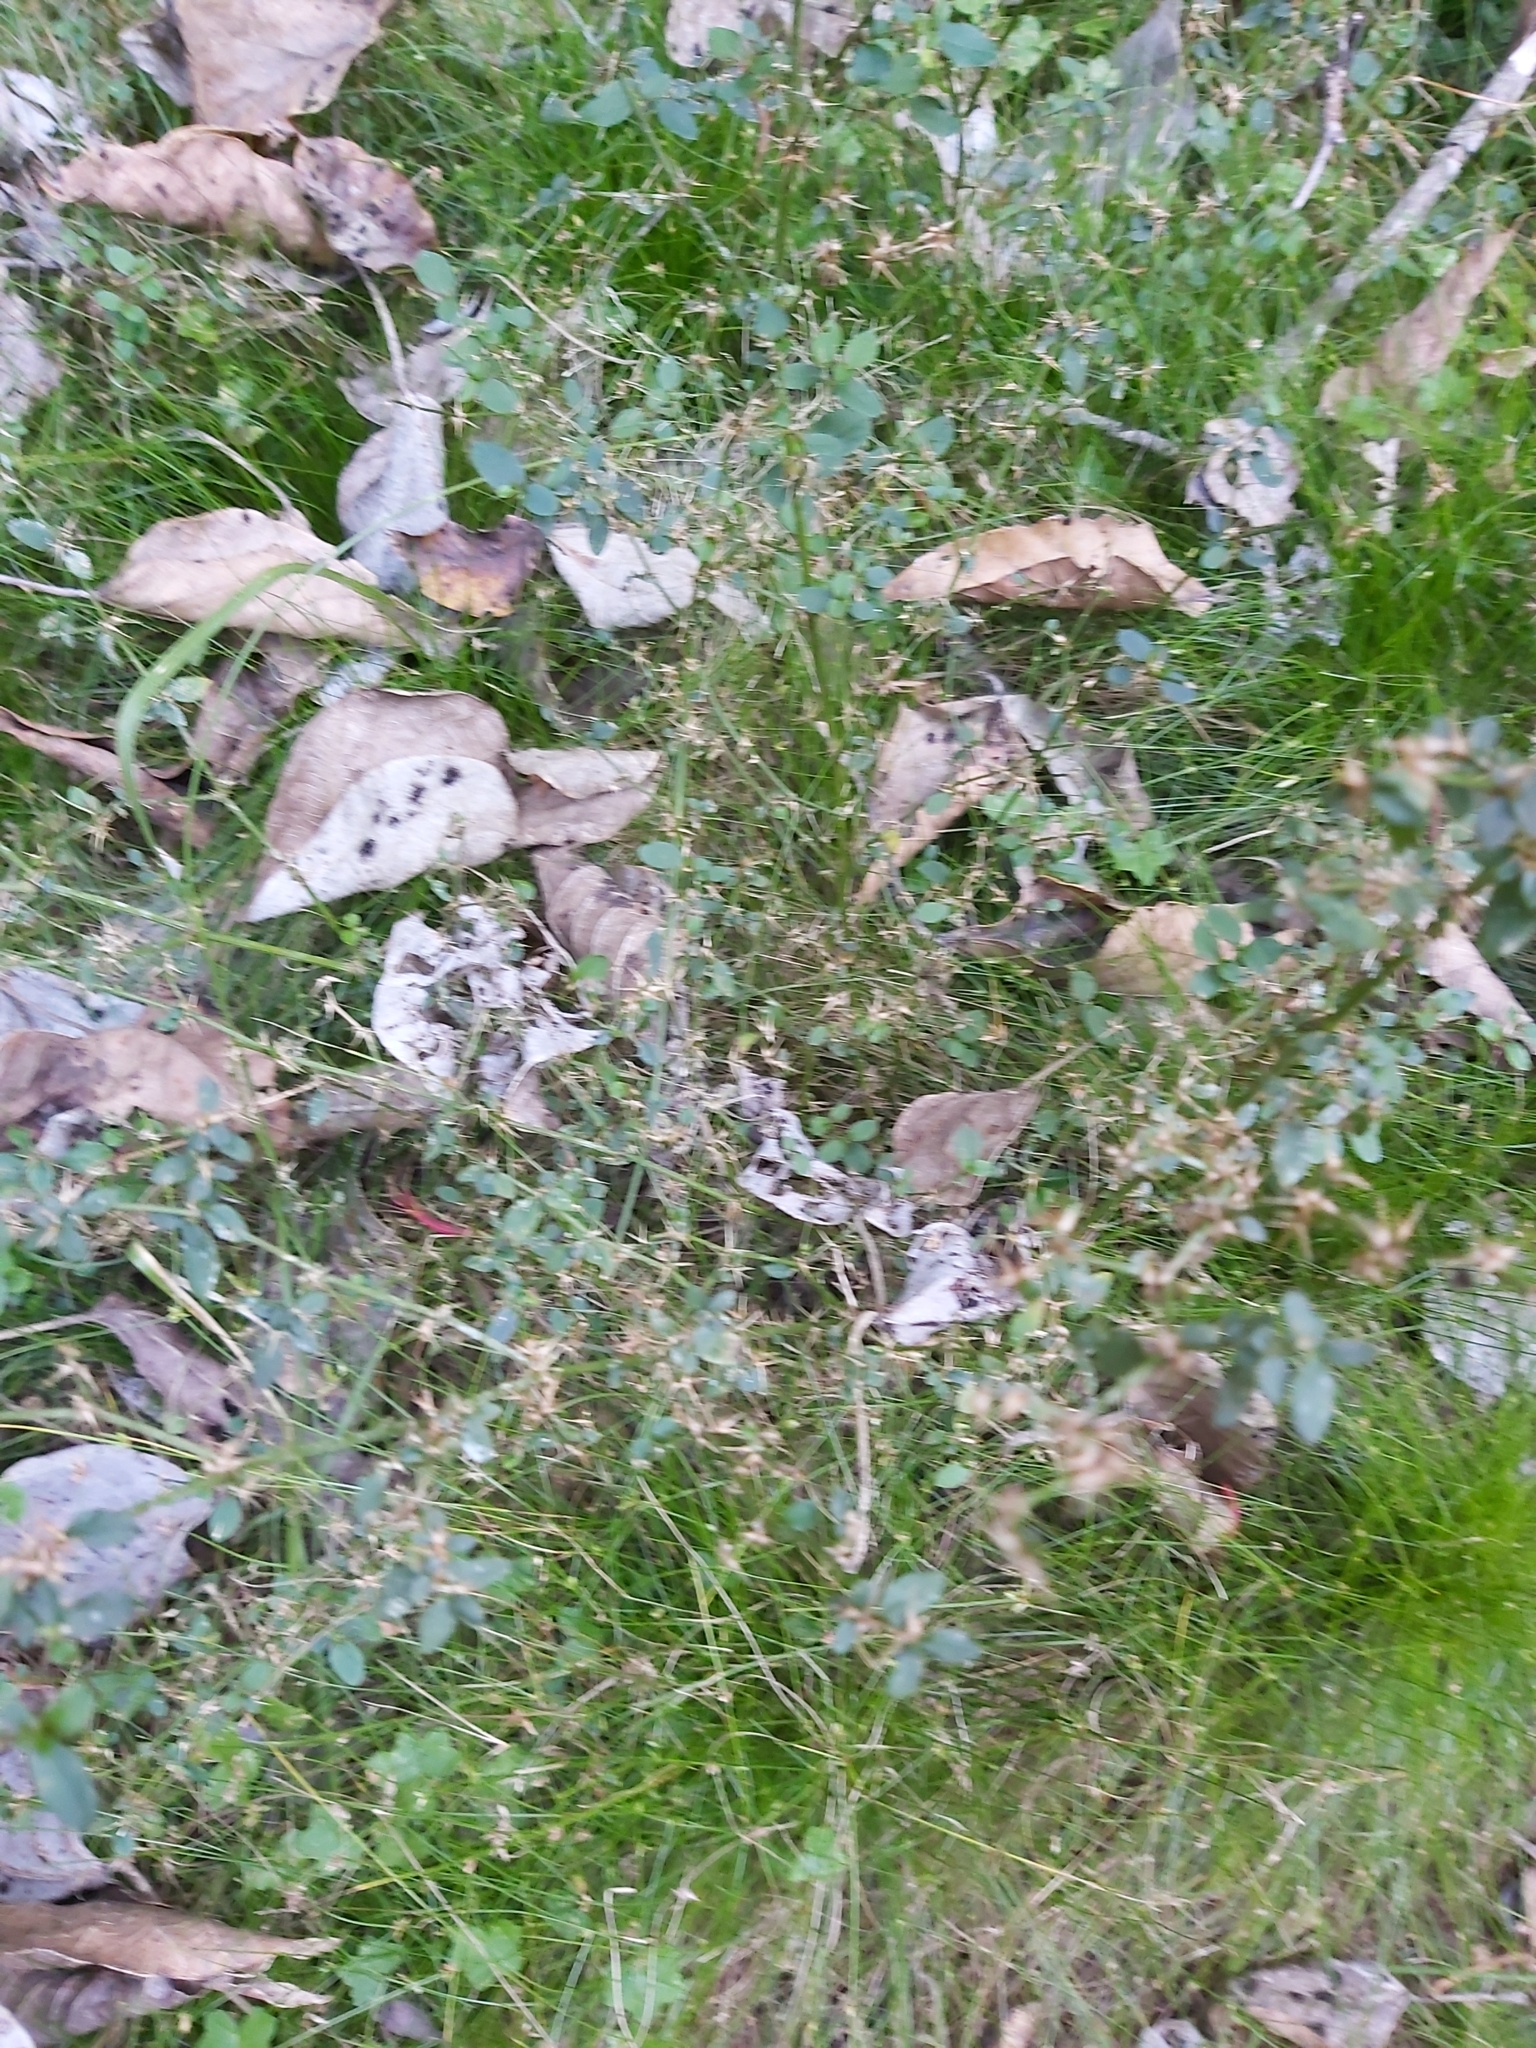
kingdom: Plantae
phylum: Tracheophyta
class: Magnoliopsida
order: Caryophyllales
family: Amaranthaceae
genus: Nyssanthes
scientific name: Nyssanthes diffusa
